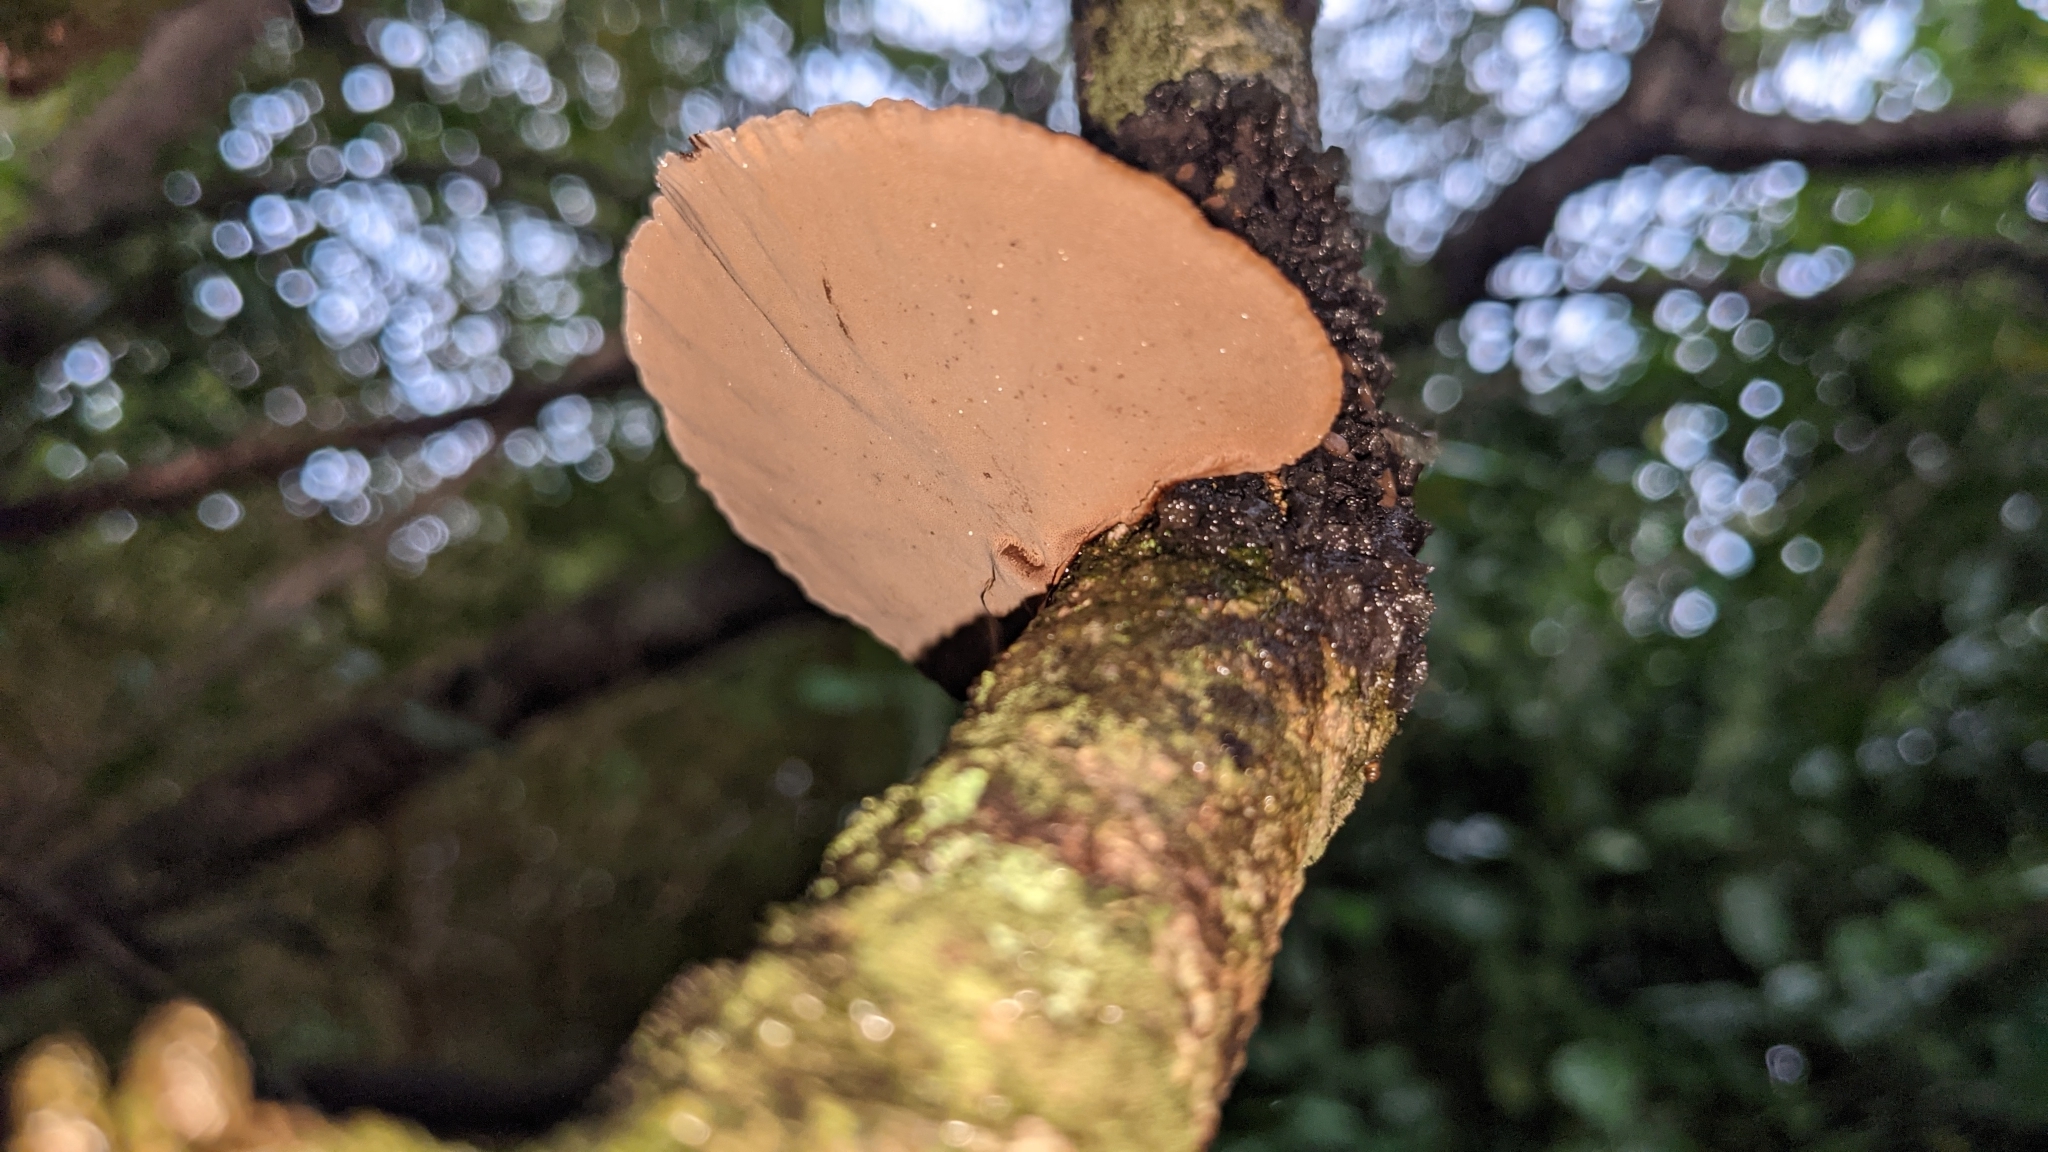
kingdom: Fungi
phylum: Basidiomycota
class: Agaricomycetes
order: Polyporales
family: Cerrenaceae
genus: Cerrena
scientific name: Cerrena hydnoides
